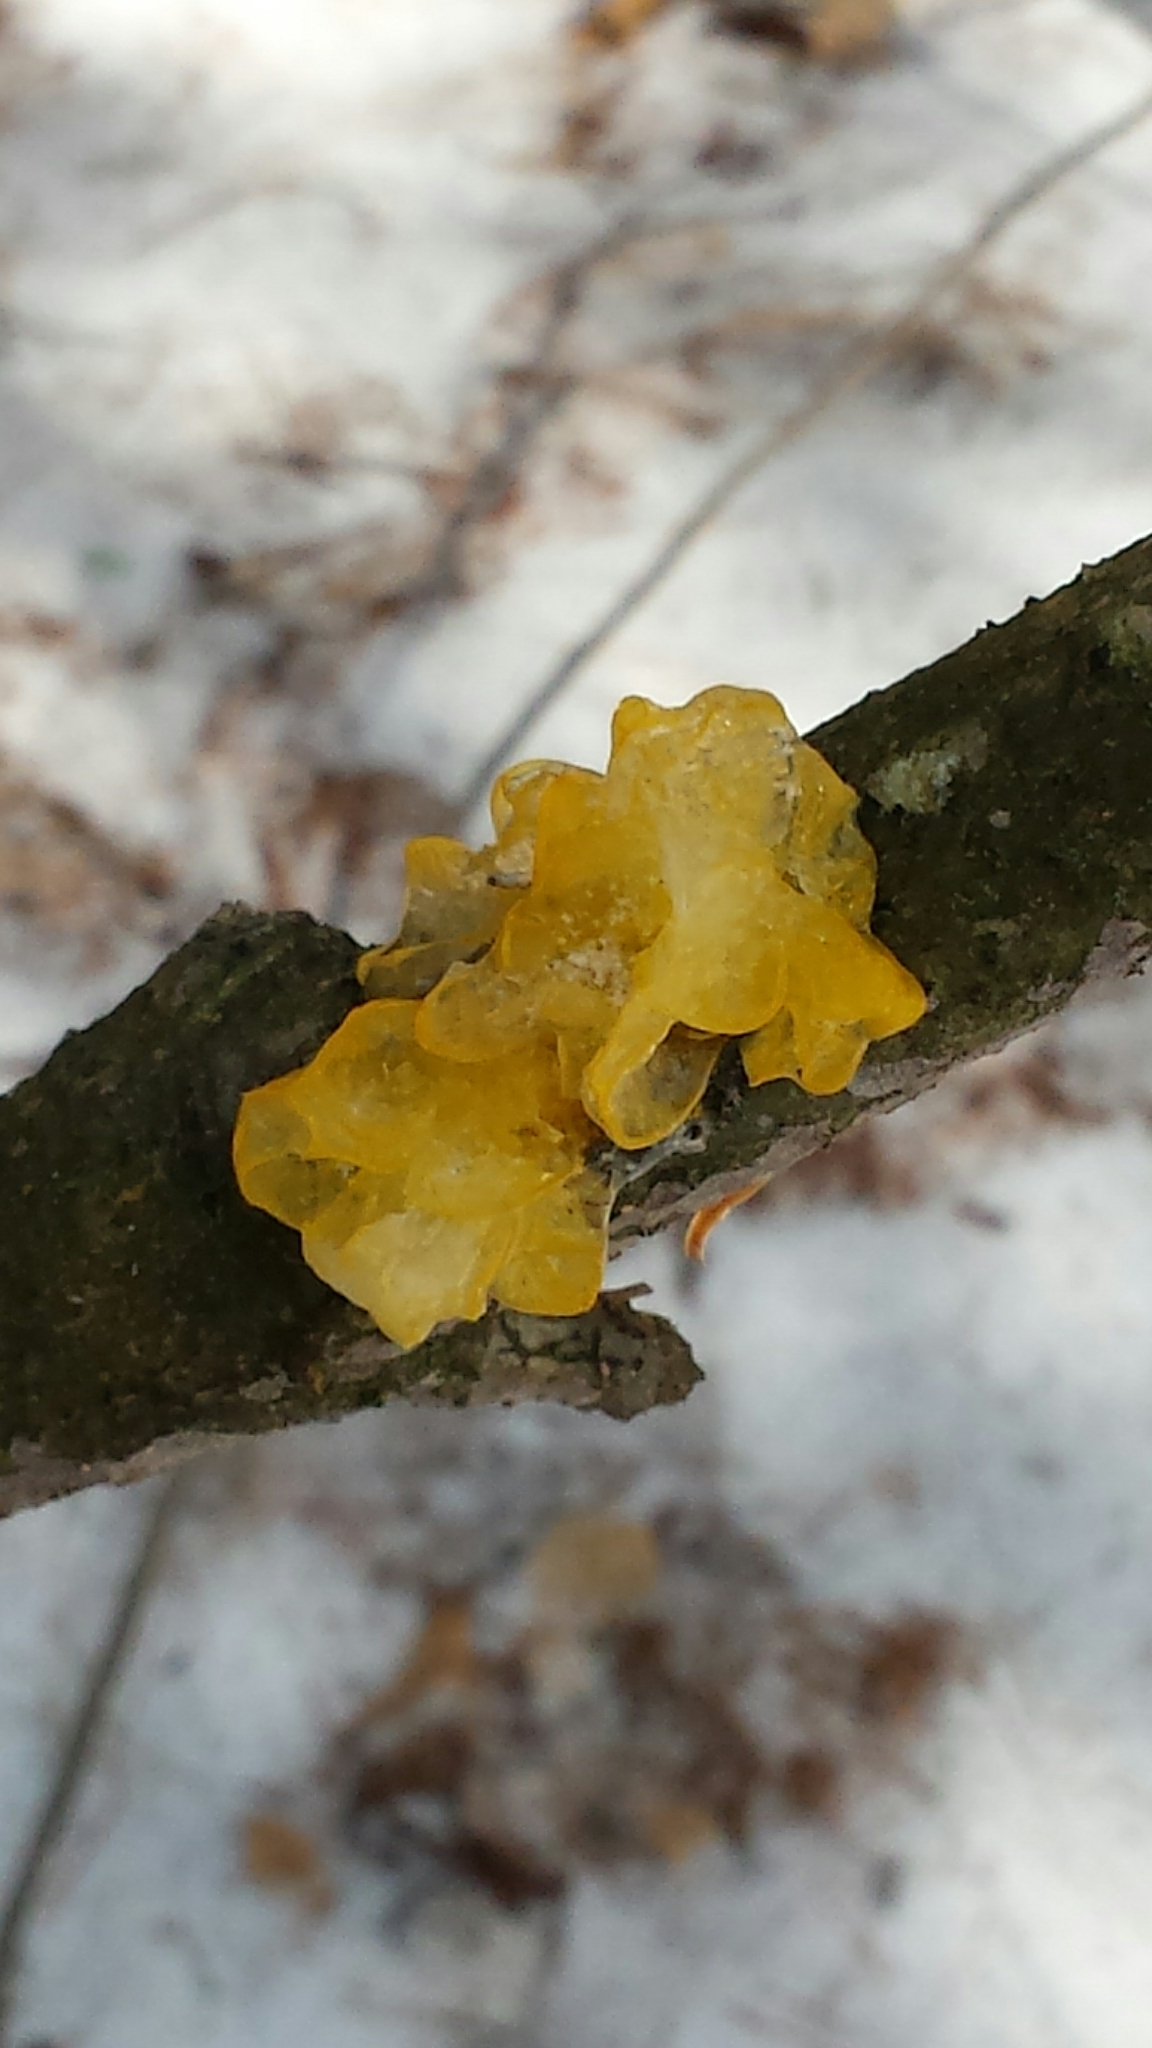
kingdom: Fungi
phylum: Basidiomycota
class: Tremellomycetes
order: Tremellales
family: Naemateliaceae
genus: Naematelia
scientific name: Naematelia aurantia
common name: Golden ear
